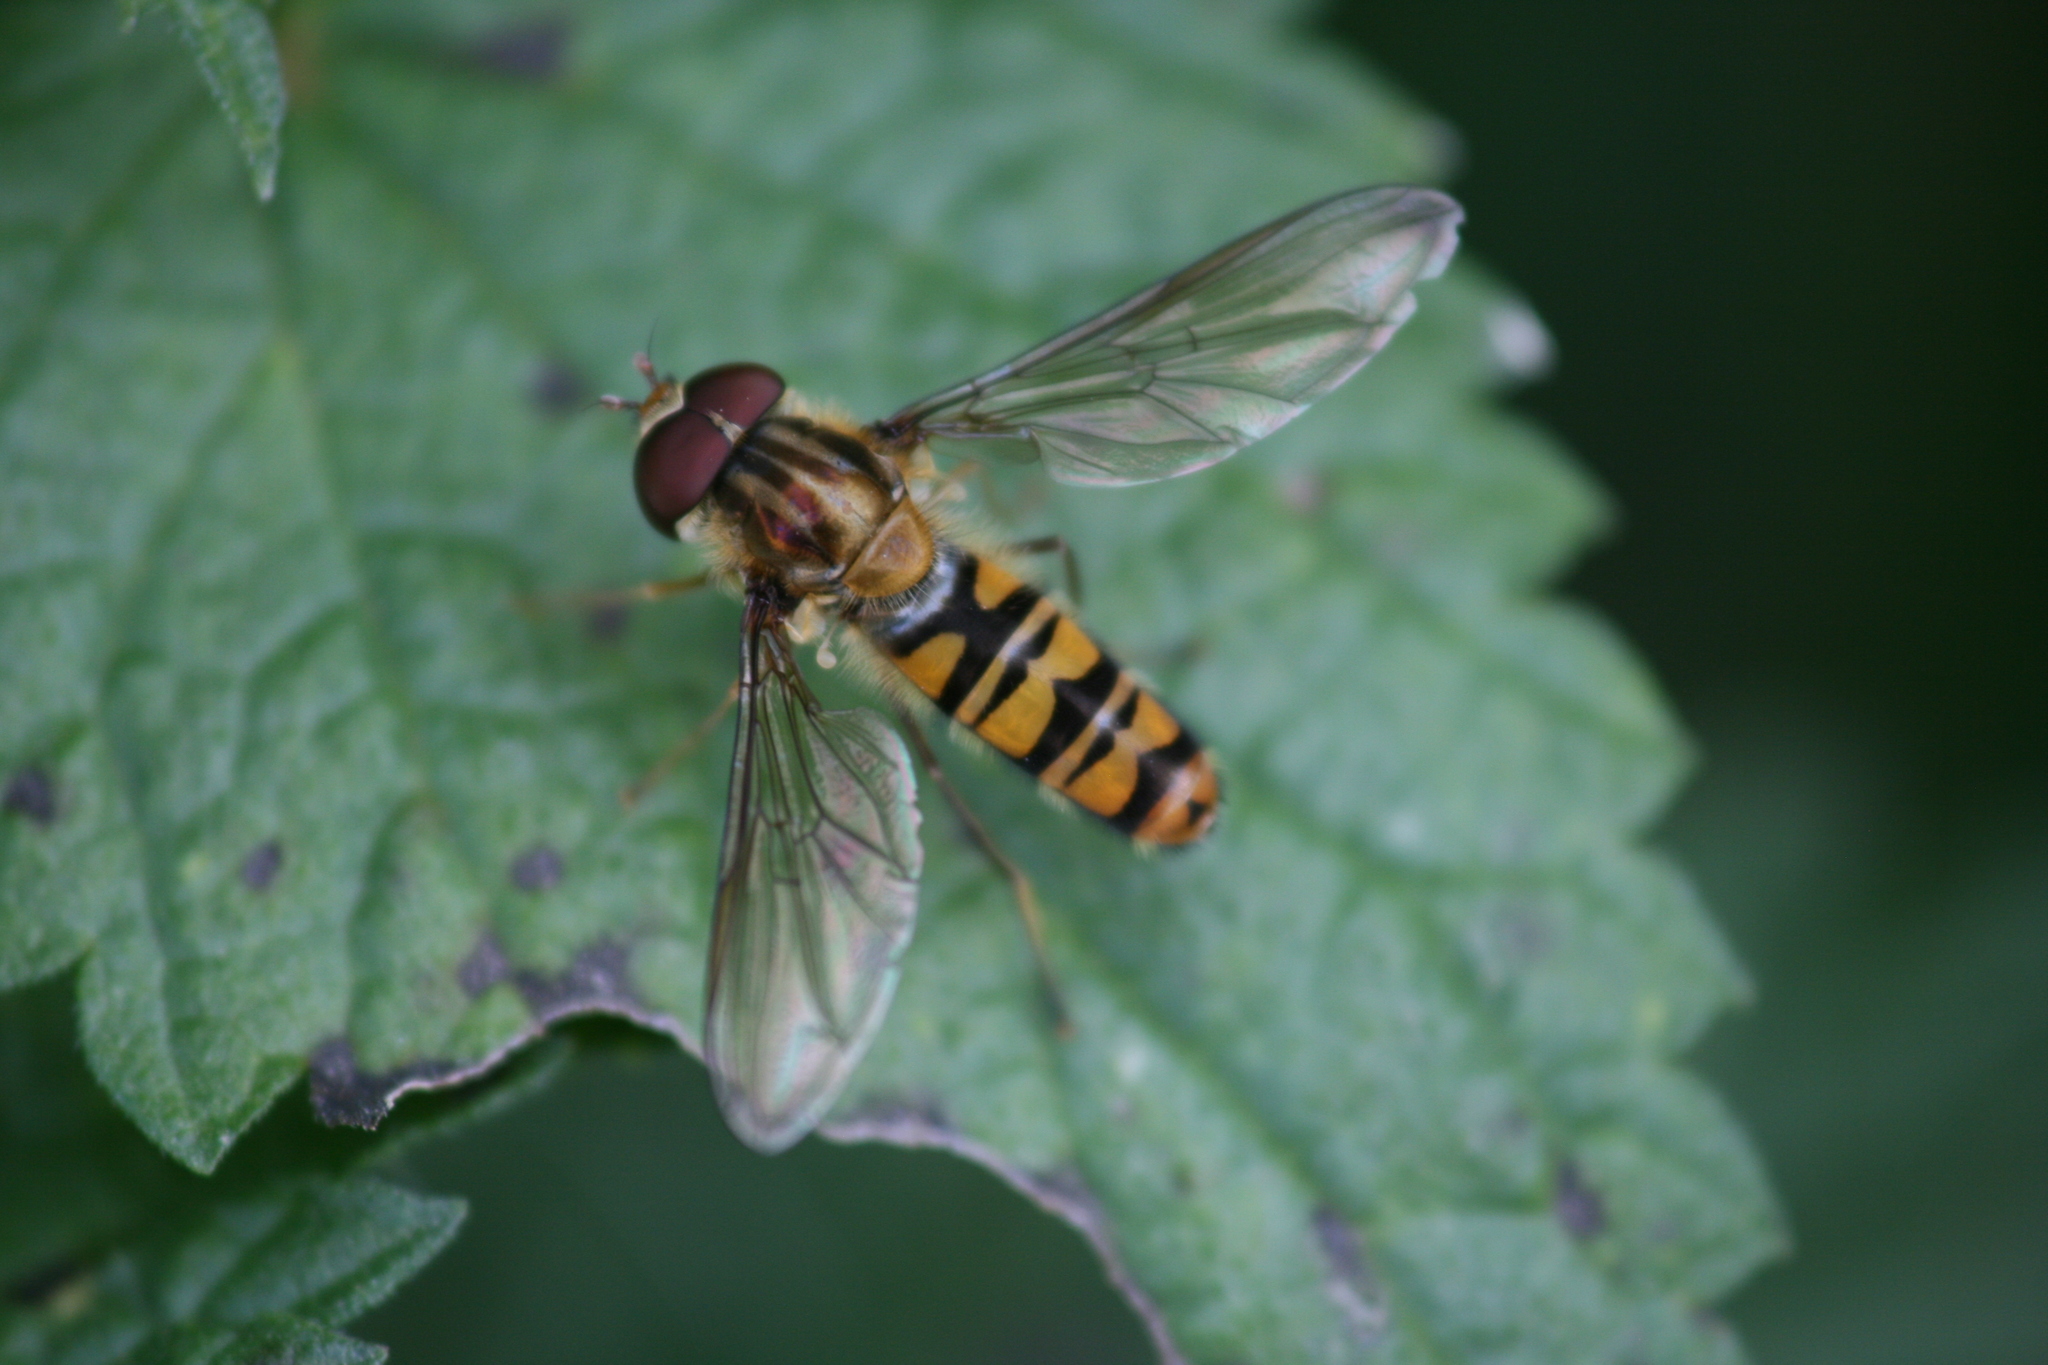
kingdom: Animalia
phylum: Arthropoda
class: Insecta
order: Diptera
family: Syrphidae
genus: Episyrphus
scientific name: Episyrphus balteatus
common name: Marmalade hoverfly
